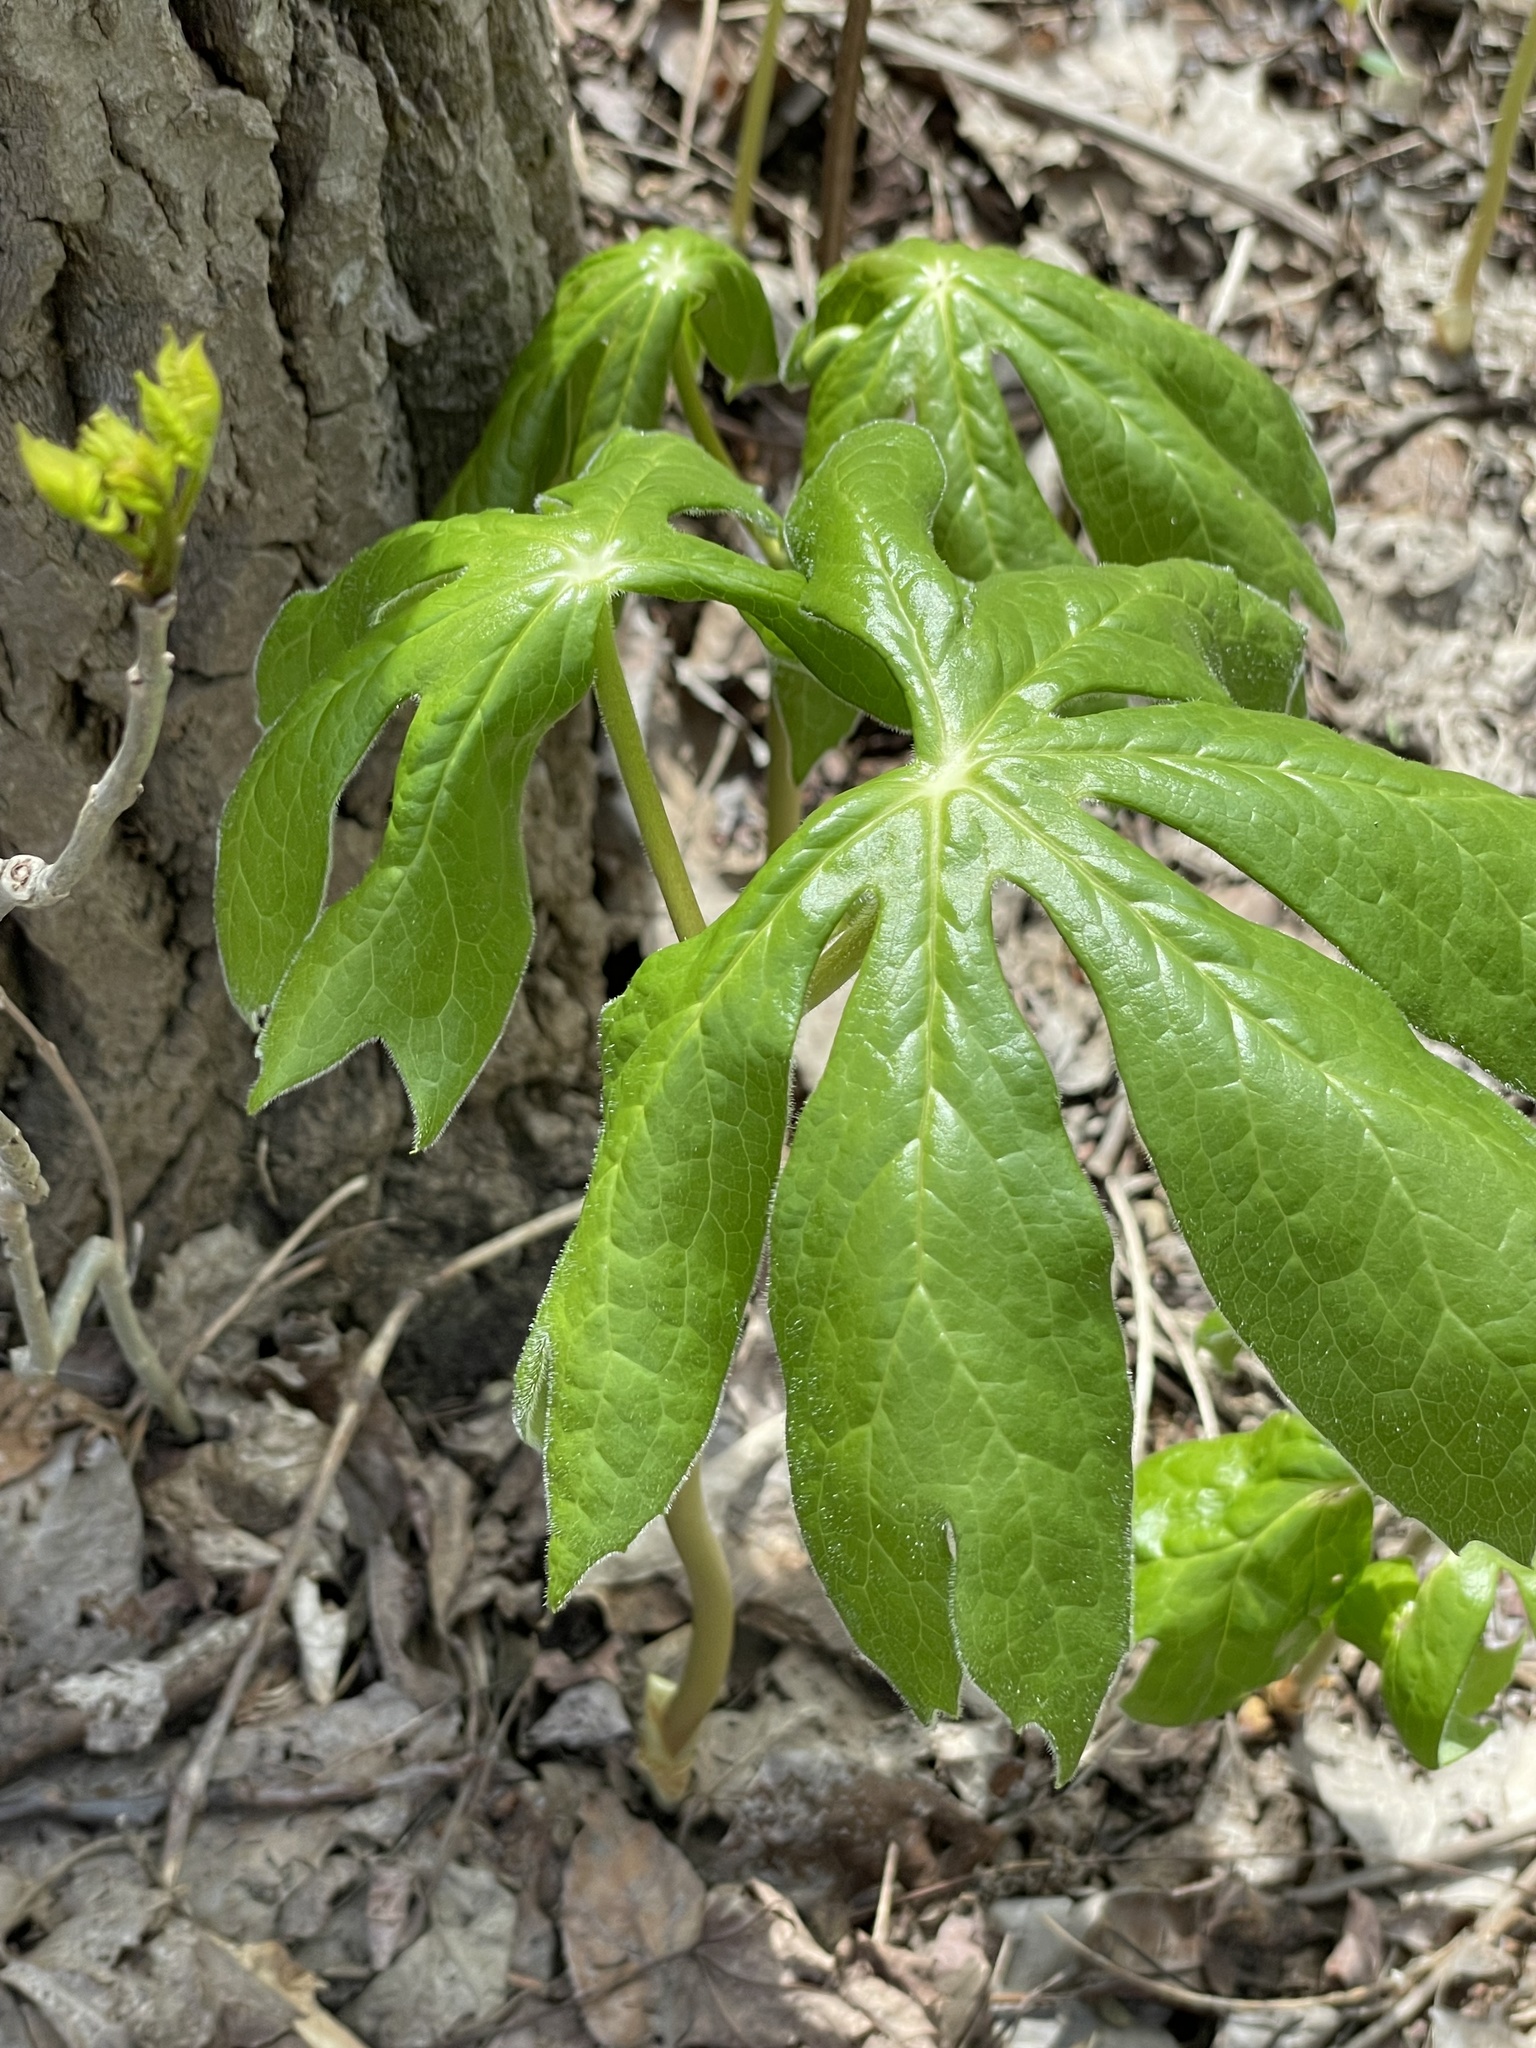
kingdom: Plantae
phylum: Tracheophyta
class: Magnoliopsida
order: Ranunculales
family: Berberidaceae
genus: Podophyllum
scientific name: Podophyllum peltatum
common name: Wild mandrake
